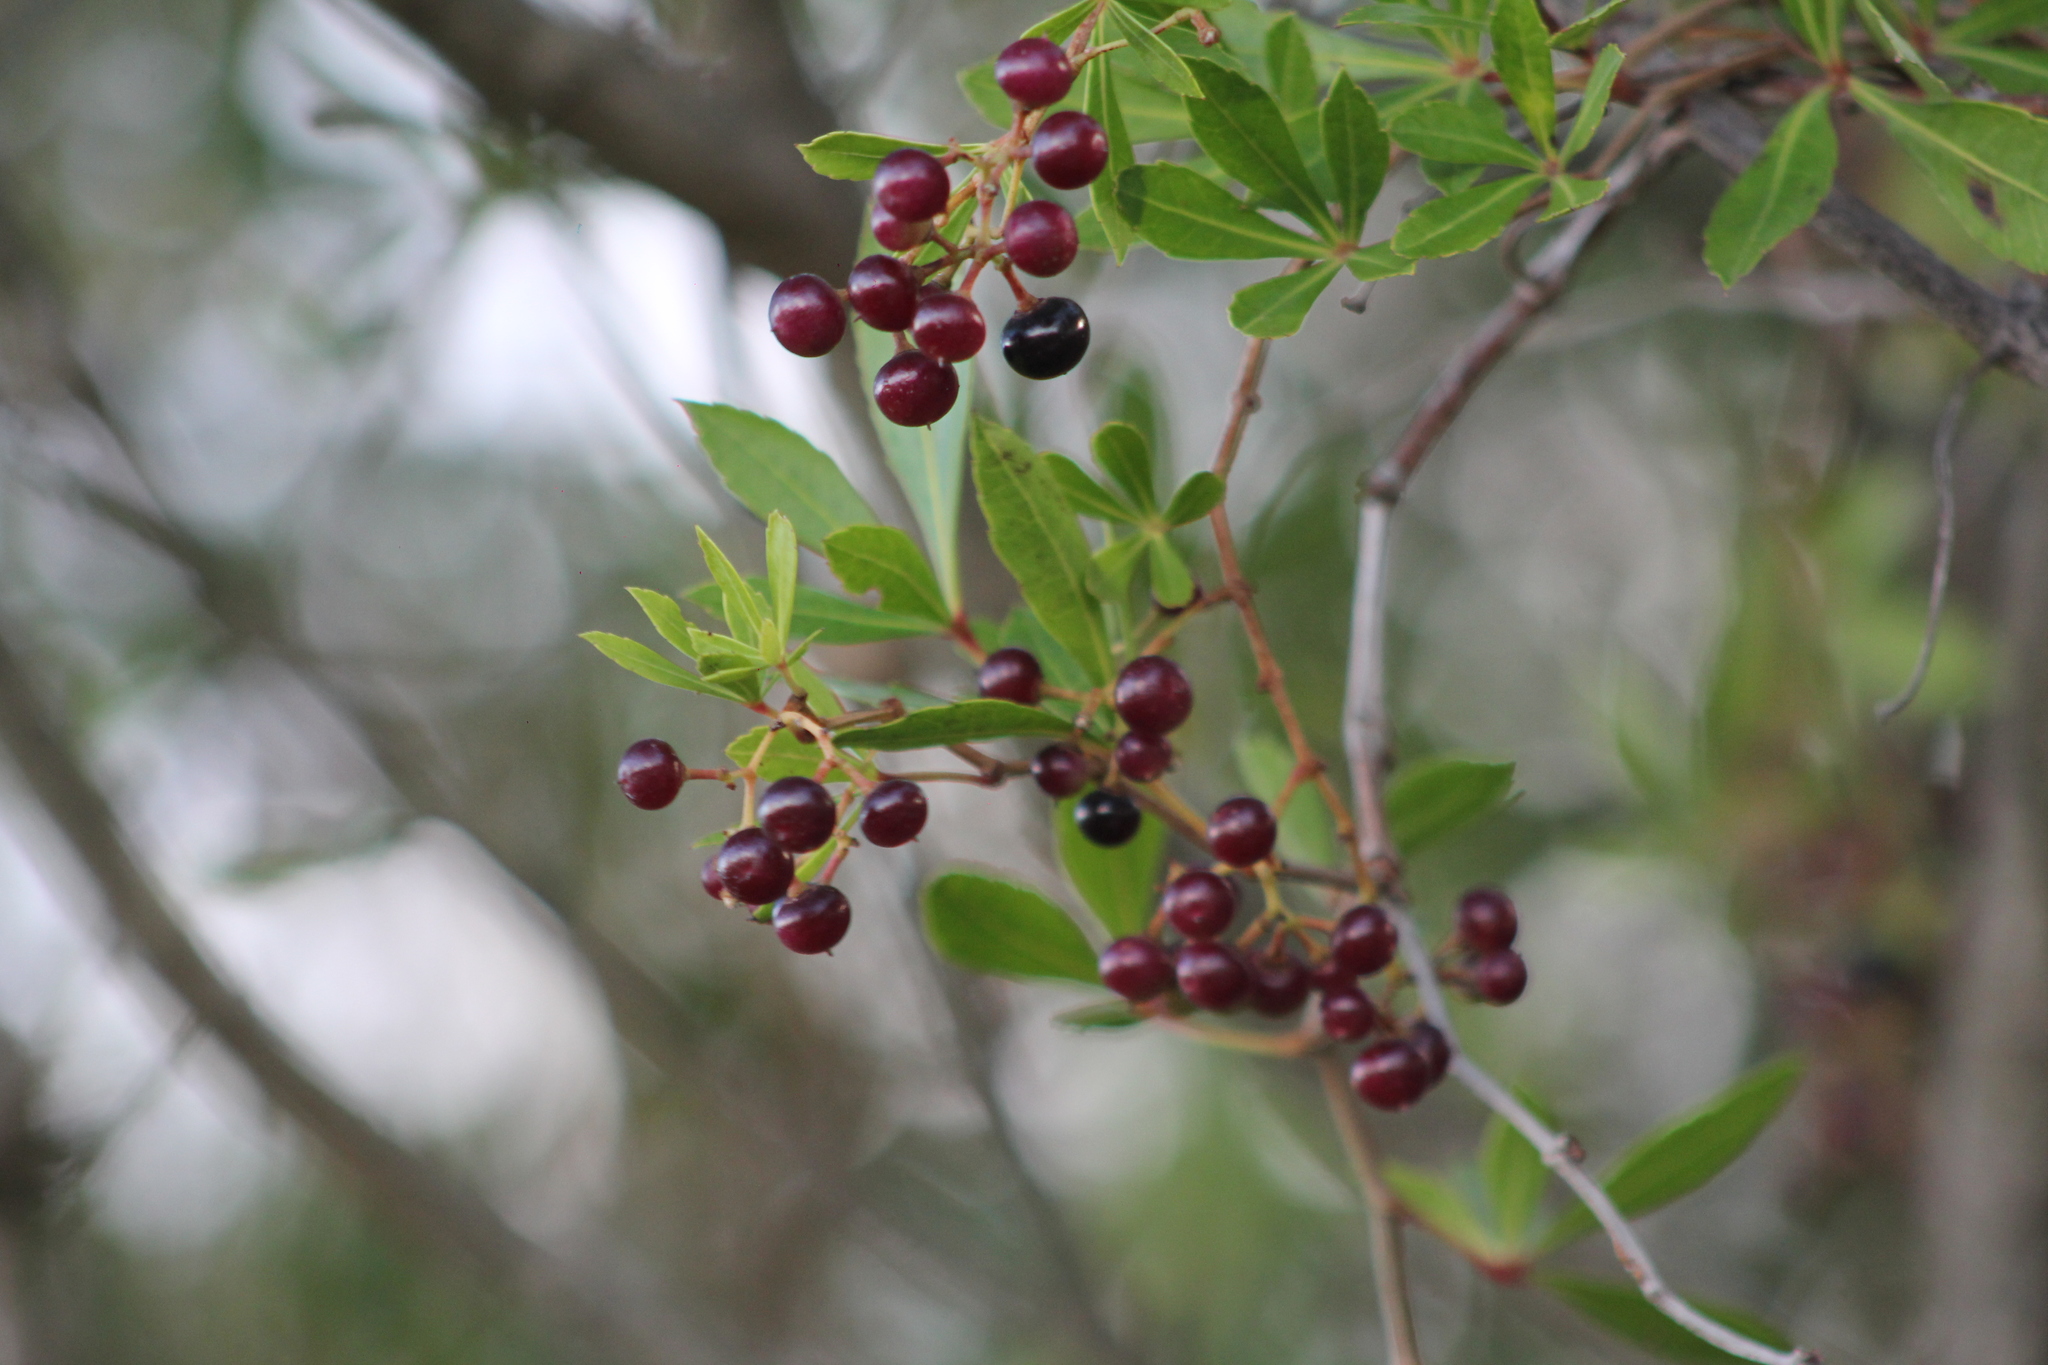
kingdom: Plantae
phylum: Tracheophyta
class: Magnoliopsida
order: Vitales
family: Vitaceae
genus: Clematicissus
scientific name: Clematicissus striata
